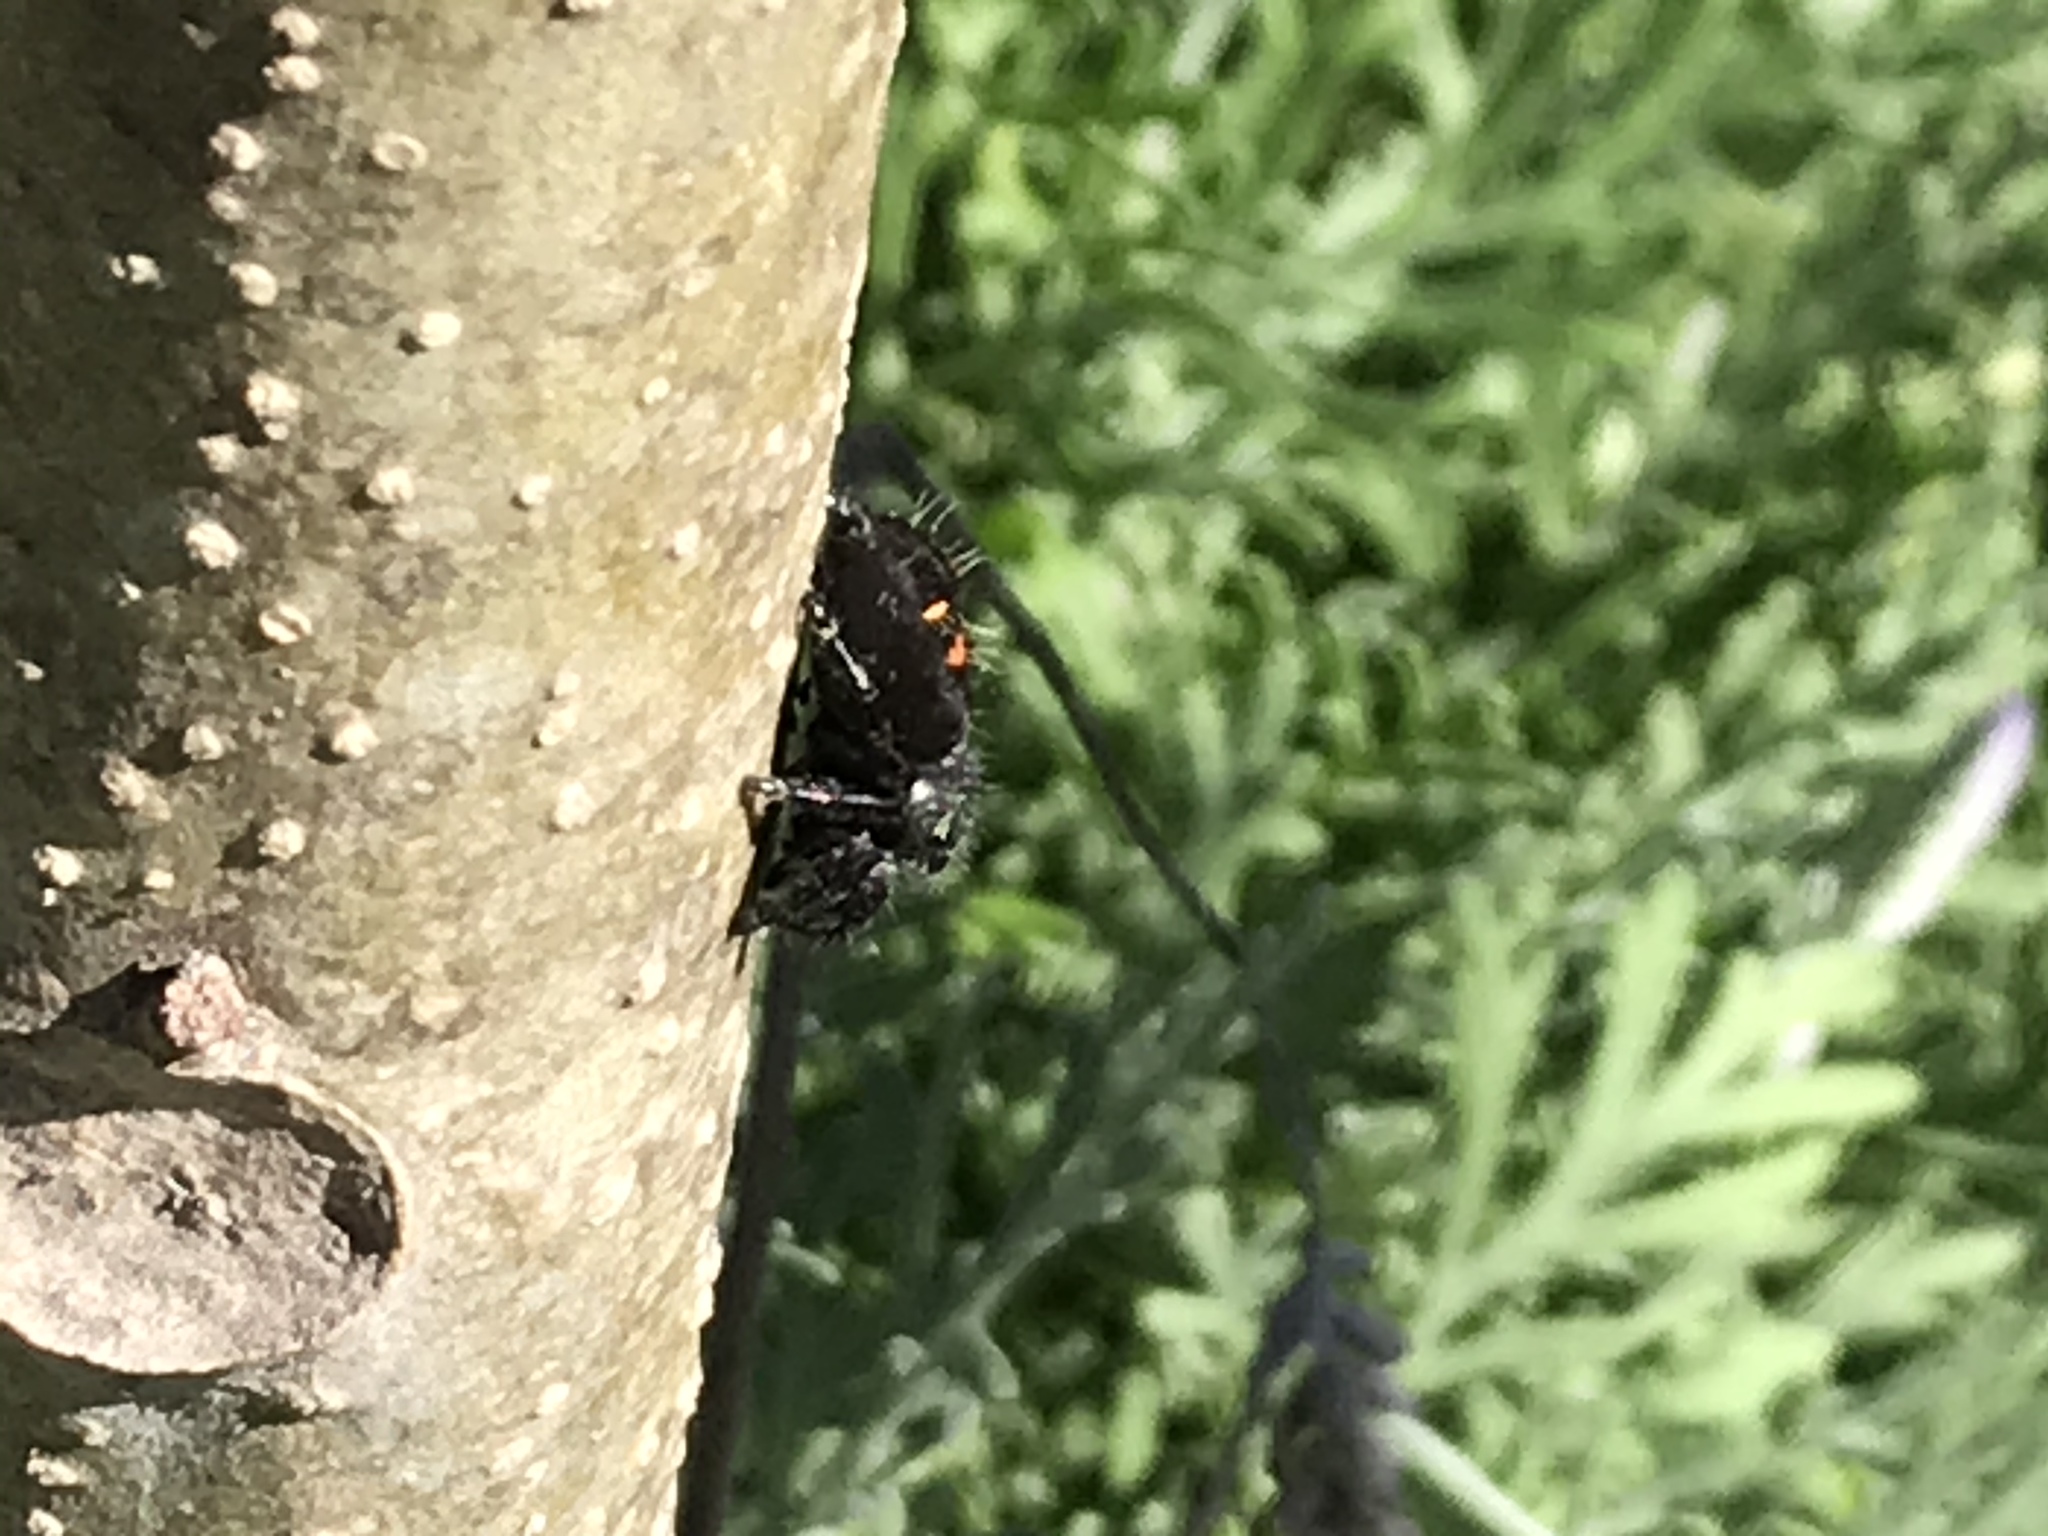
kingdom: Animalia
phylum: Arthropoda
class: Arachnida
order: Araneae
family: Salticidae
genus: Phidippus
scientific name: Phidippus audax
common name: Bold jumper
